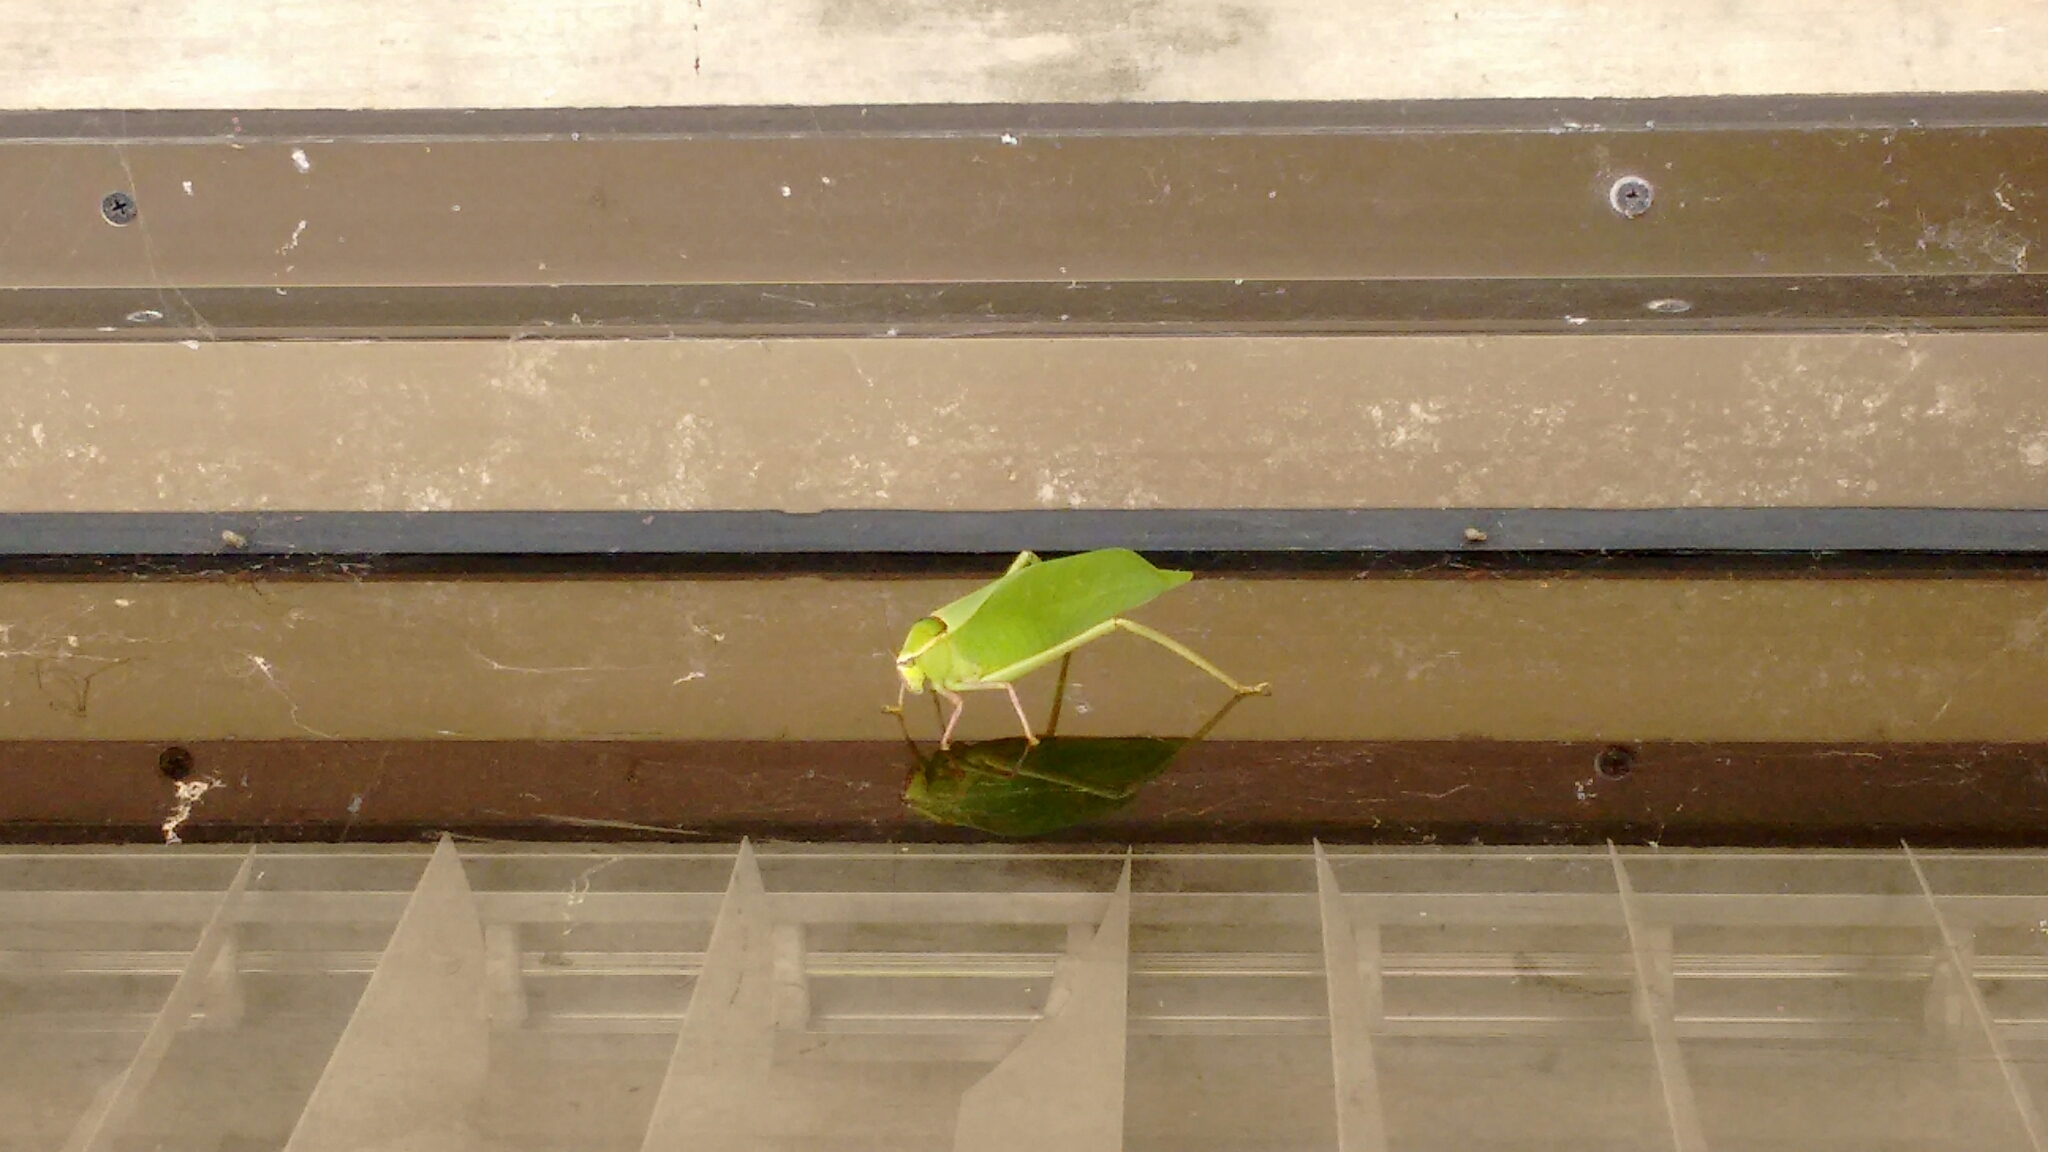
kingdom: Animalia
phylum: Arthropoda
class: Insecta
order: Orthoptera
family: Tettigoniidae
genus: Stilpnochlora
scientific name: Stilpnochlora couloniana
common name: Giant katydid
